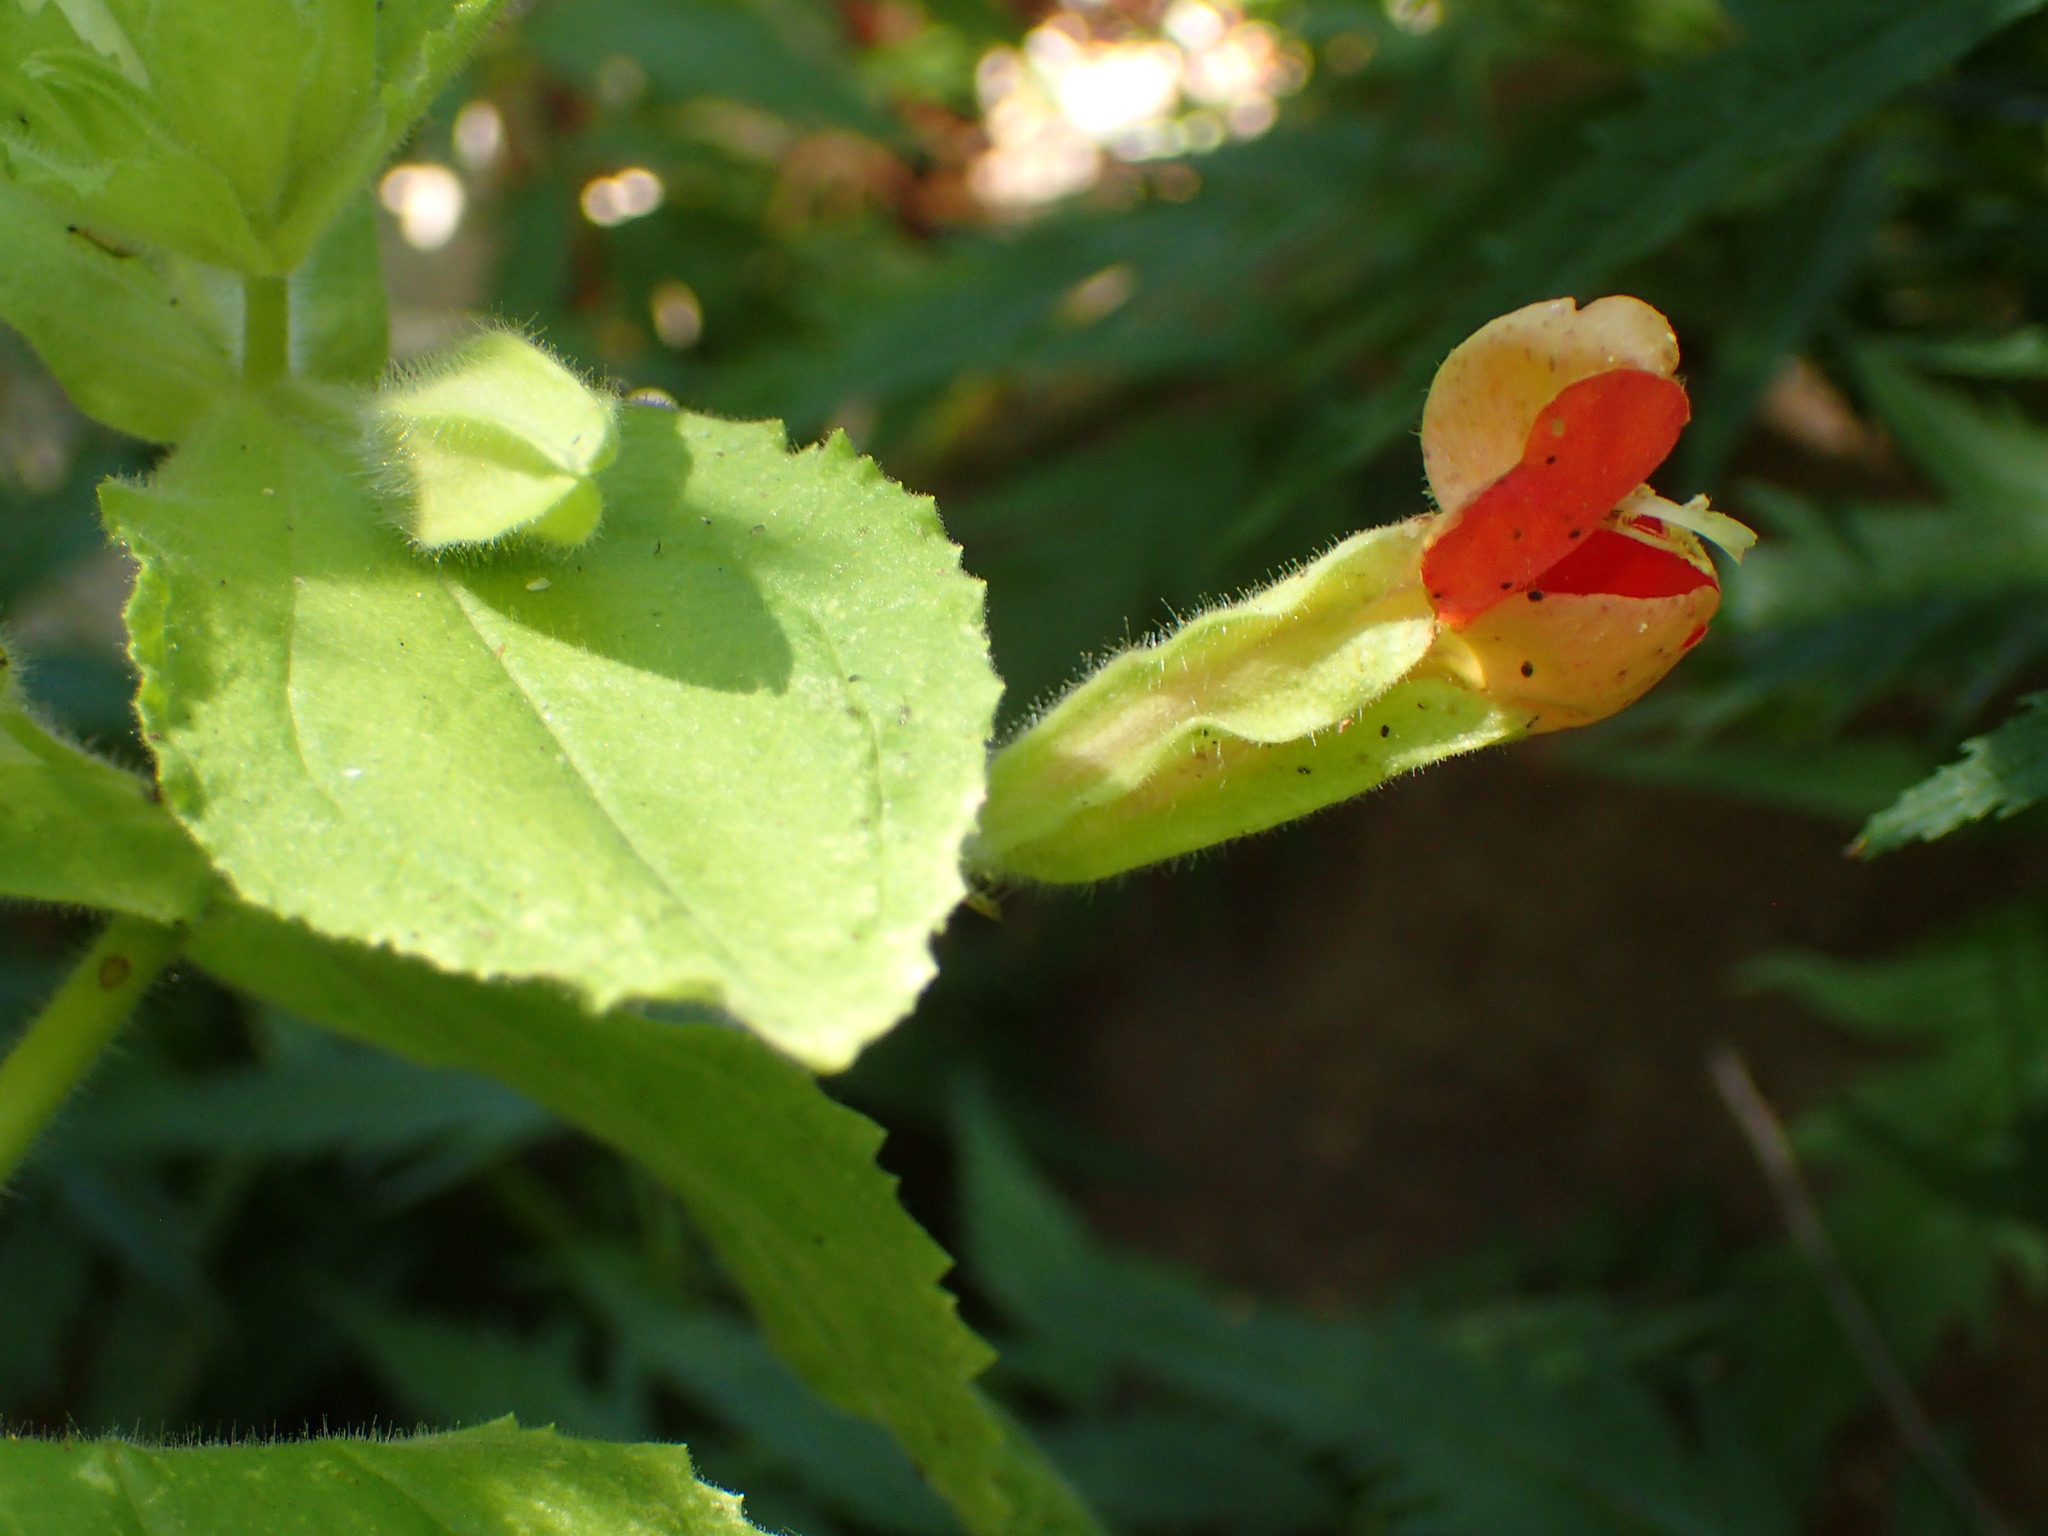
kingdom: Plantae
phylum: Tracheophyta
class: Magnoliopsida
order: Lamiales
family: Phrymaceae
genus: Erythranthe
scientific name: Erythranthe cardinalis
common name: Scarlet monkey-flower
